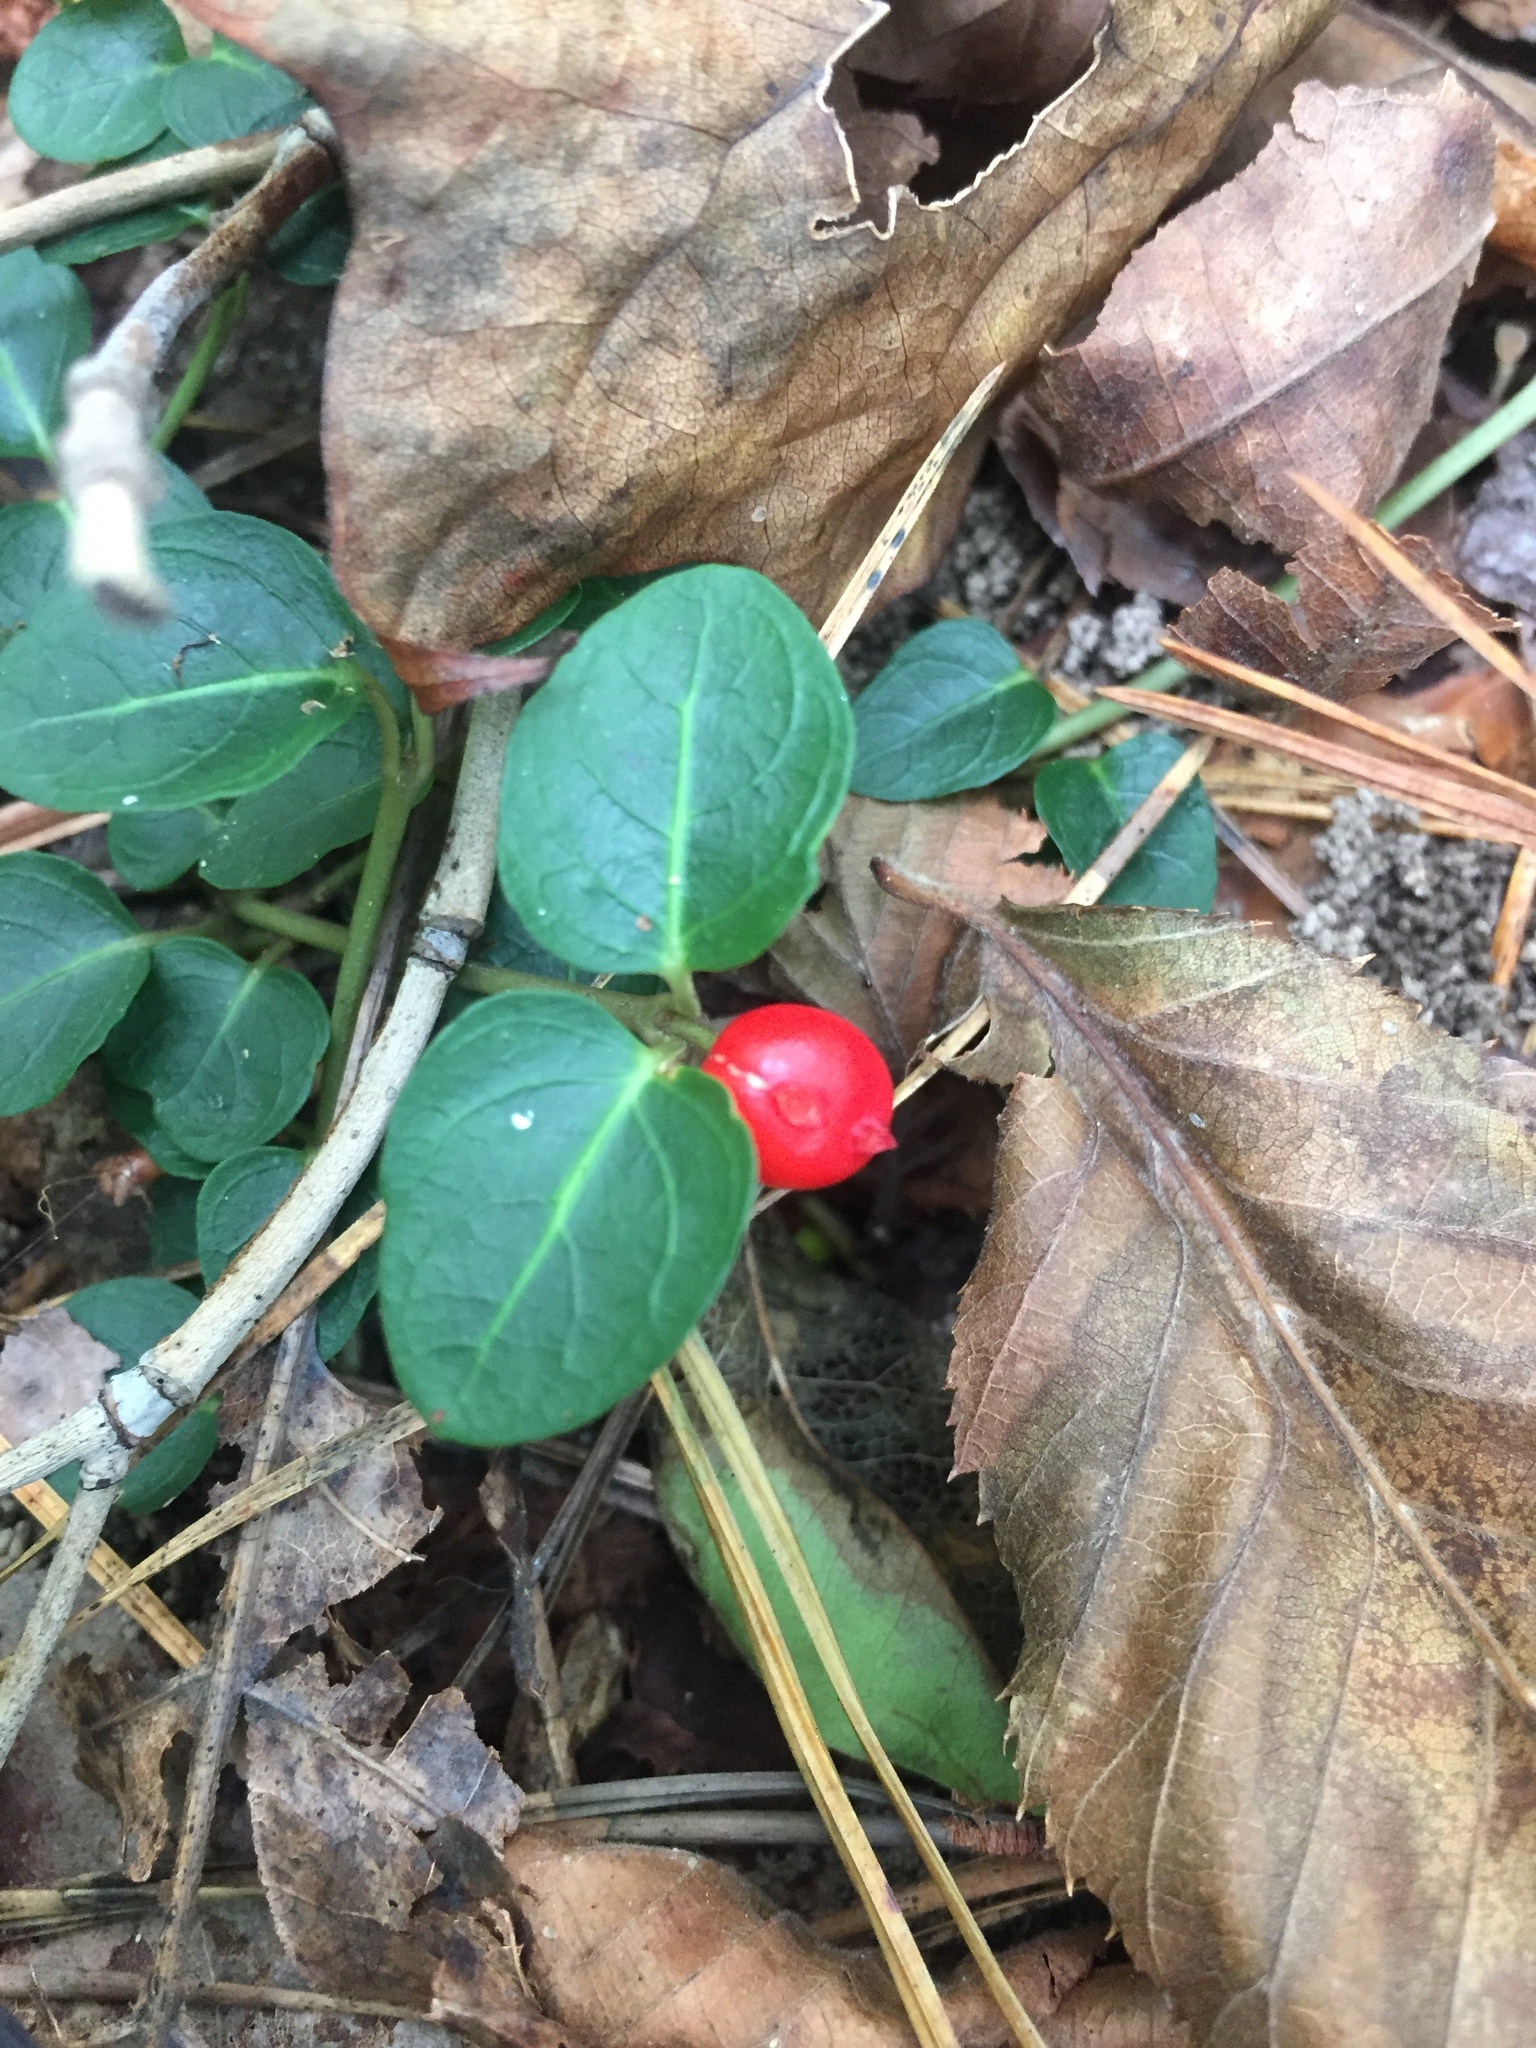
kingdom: Plantae
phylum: Tracheophyta
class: Magnoliopsida
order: Gentianales
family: Rubiaceae
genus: Mitchella
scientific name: Mitchella repens
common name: Partridge-berry
